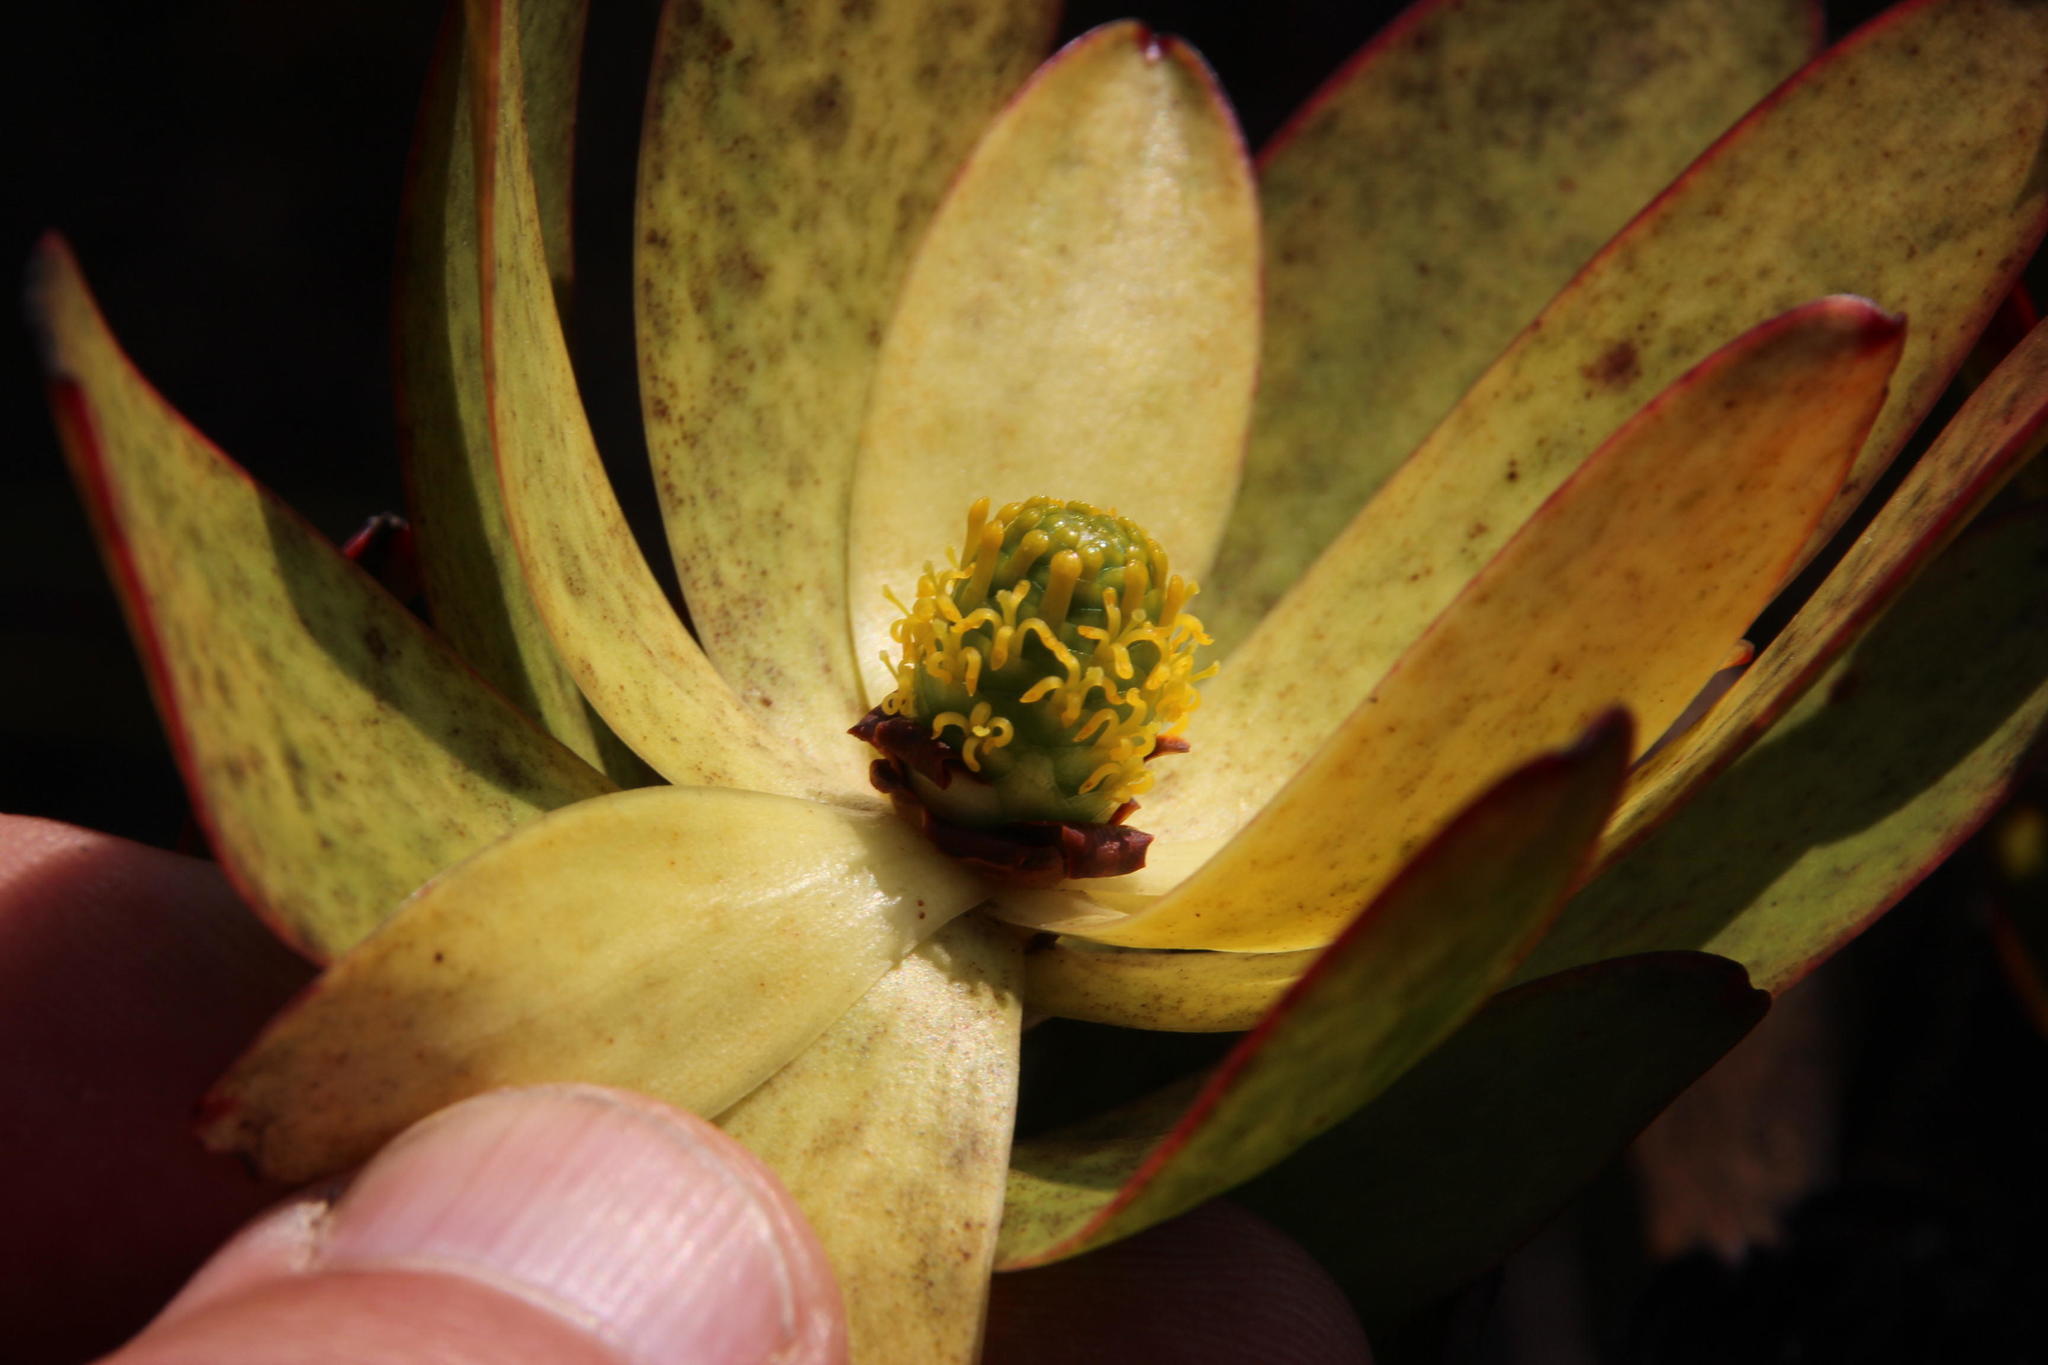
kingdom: Plantae
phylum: Tracheophyta
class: Magnoliopsida
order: Proteales
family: Proteaceae
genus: Leucadendron
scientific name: Leucadendron gandogeri
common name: Broad-leaf conebush
